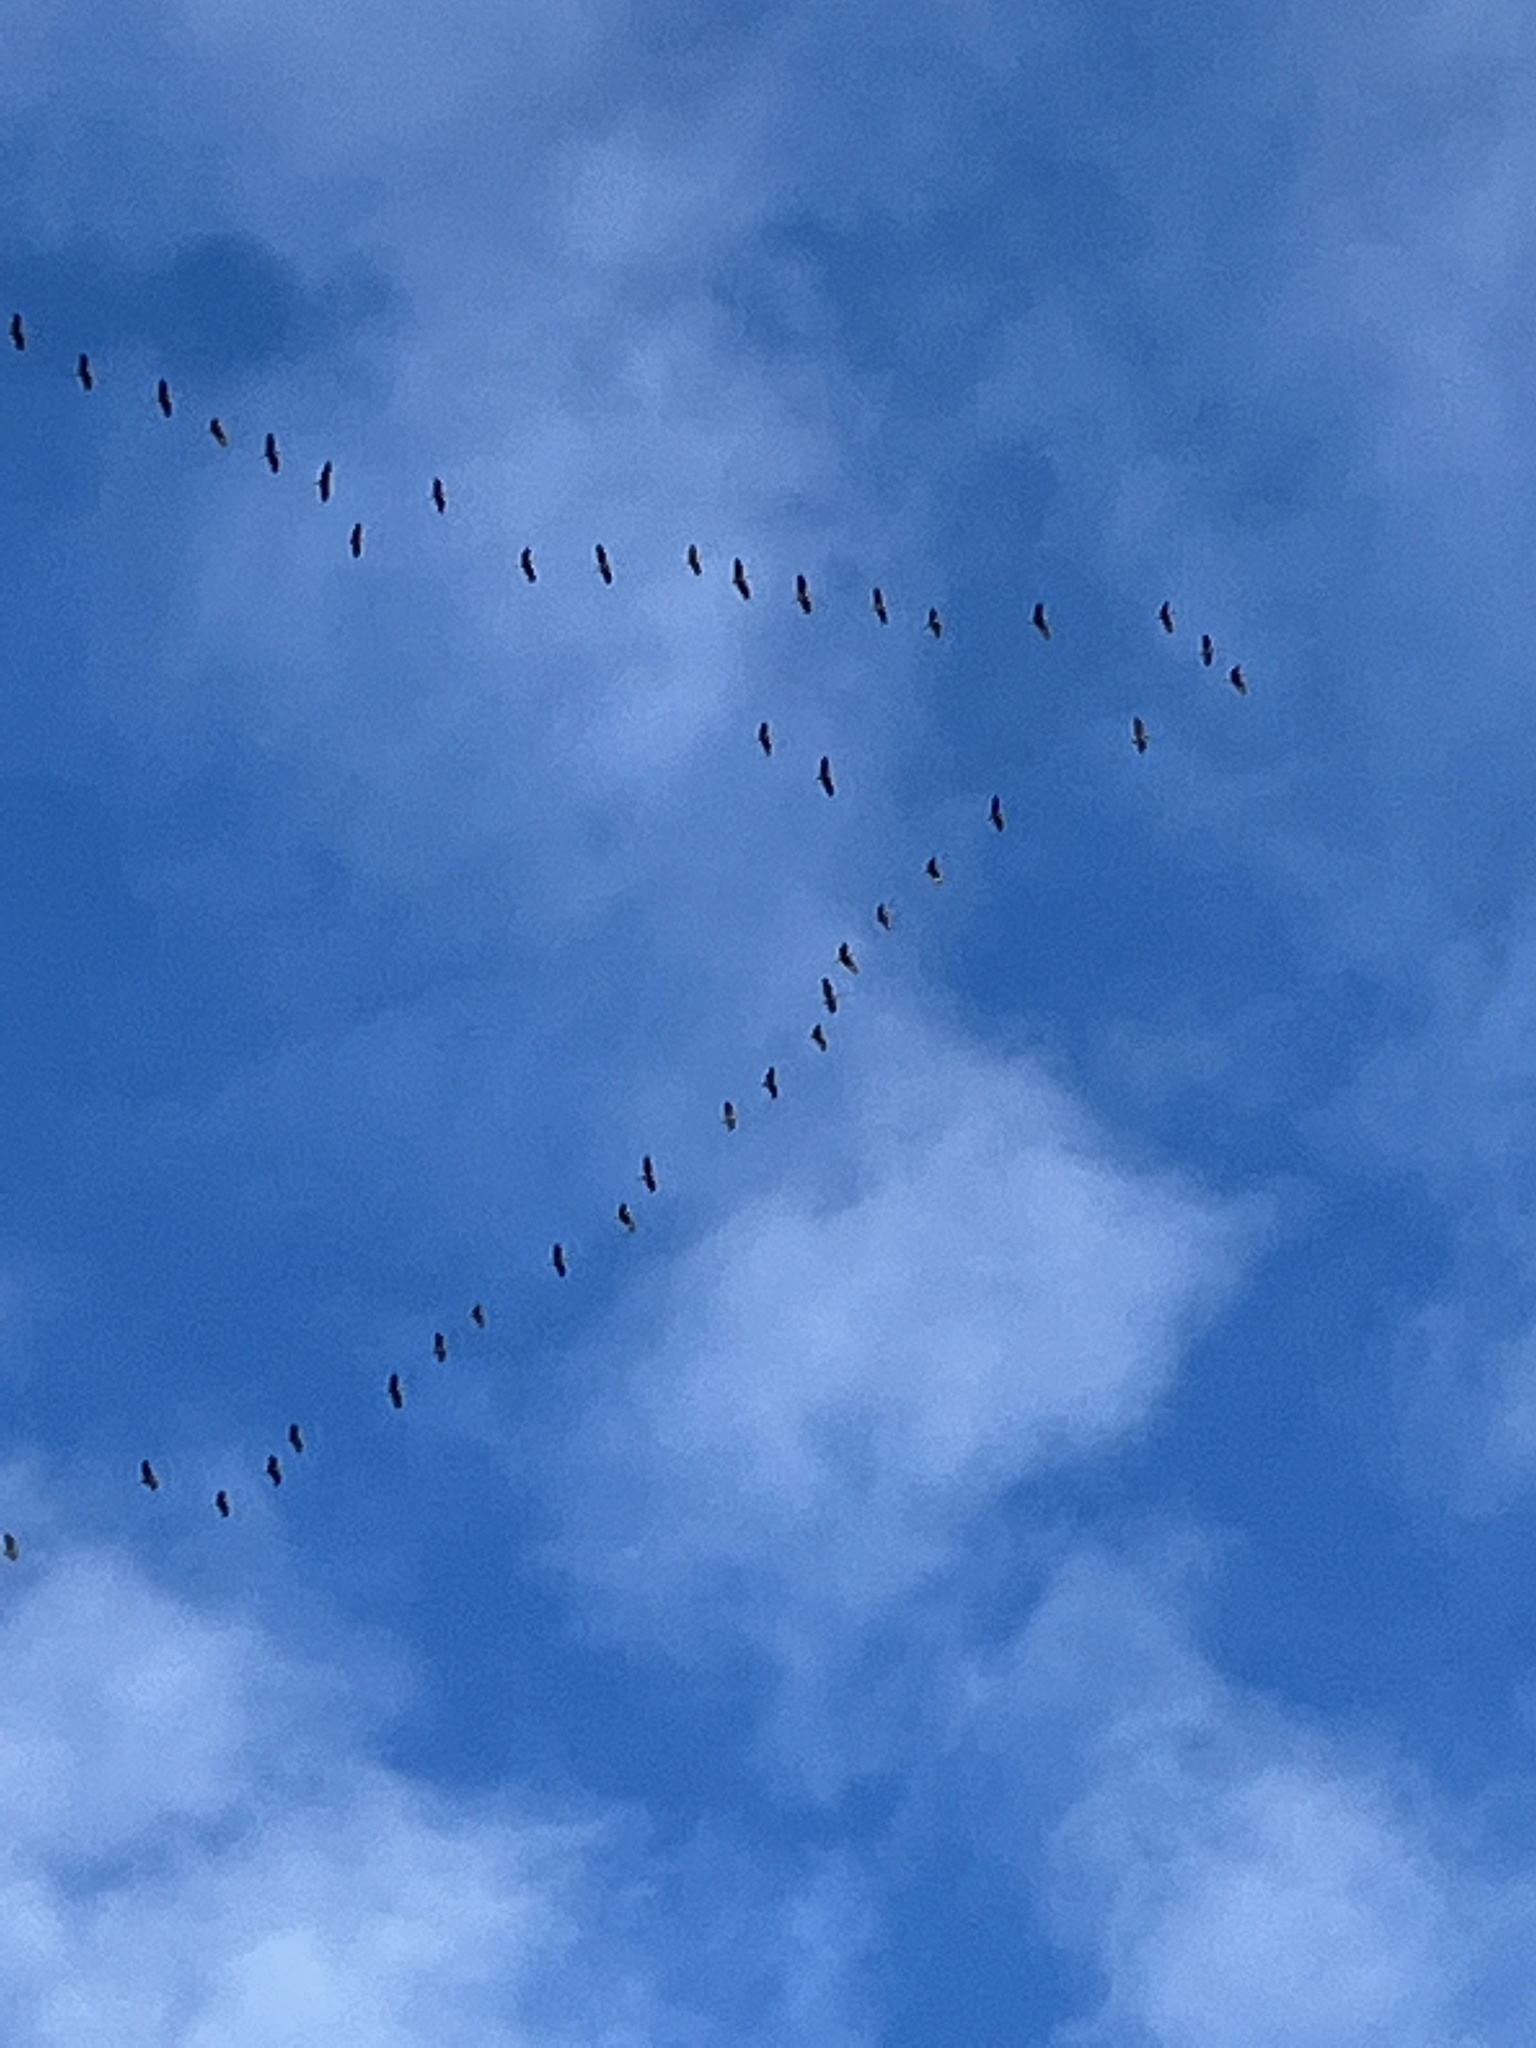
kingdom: Animalia
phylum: Chordata
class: Aves
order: Gruiformes
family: Gruidae
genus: Grus
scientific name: Grus canadensis
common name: Sandhill crane
